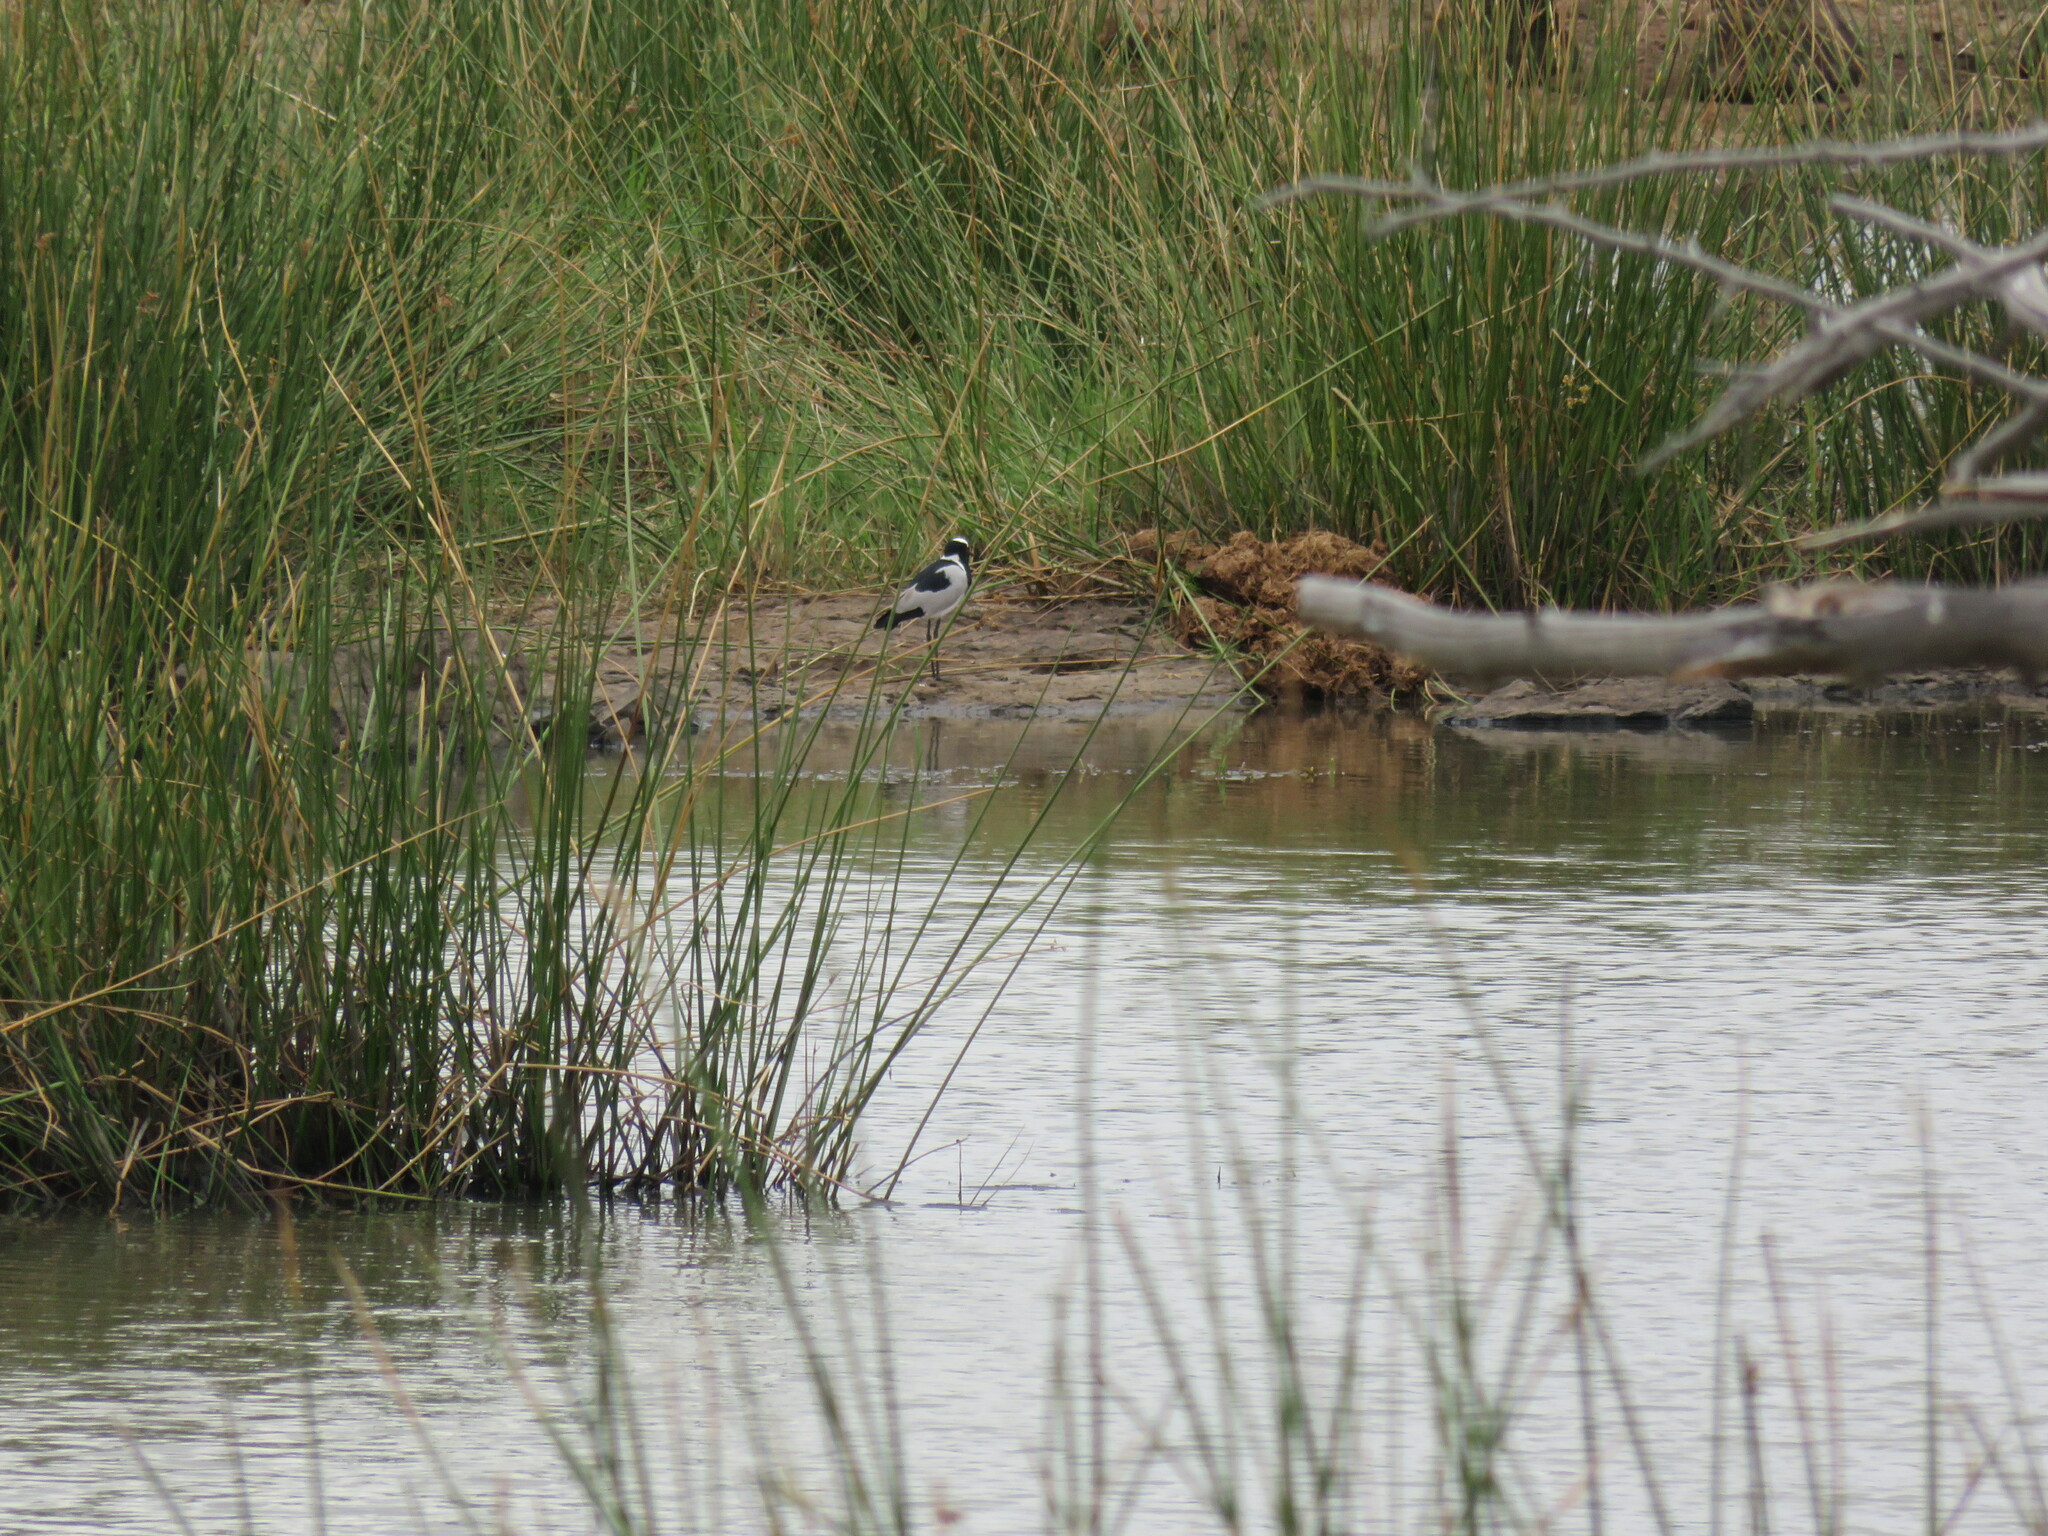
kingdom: Animalia
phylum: Chordata
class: Aves
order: Charadriiformes
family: Charadriidae
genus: Vanellus
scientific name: Vanellus armatus
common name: Blacksmith lapwing
